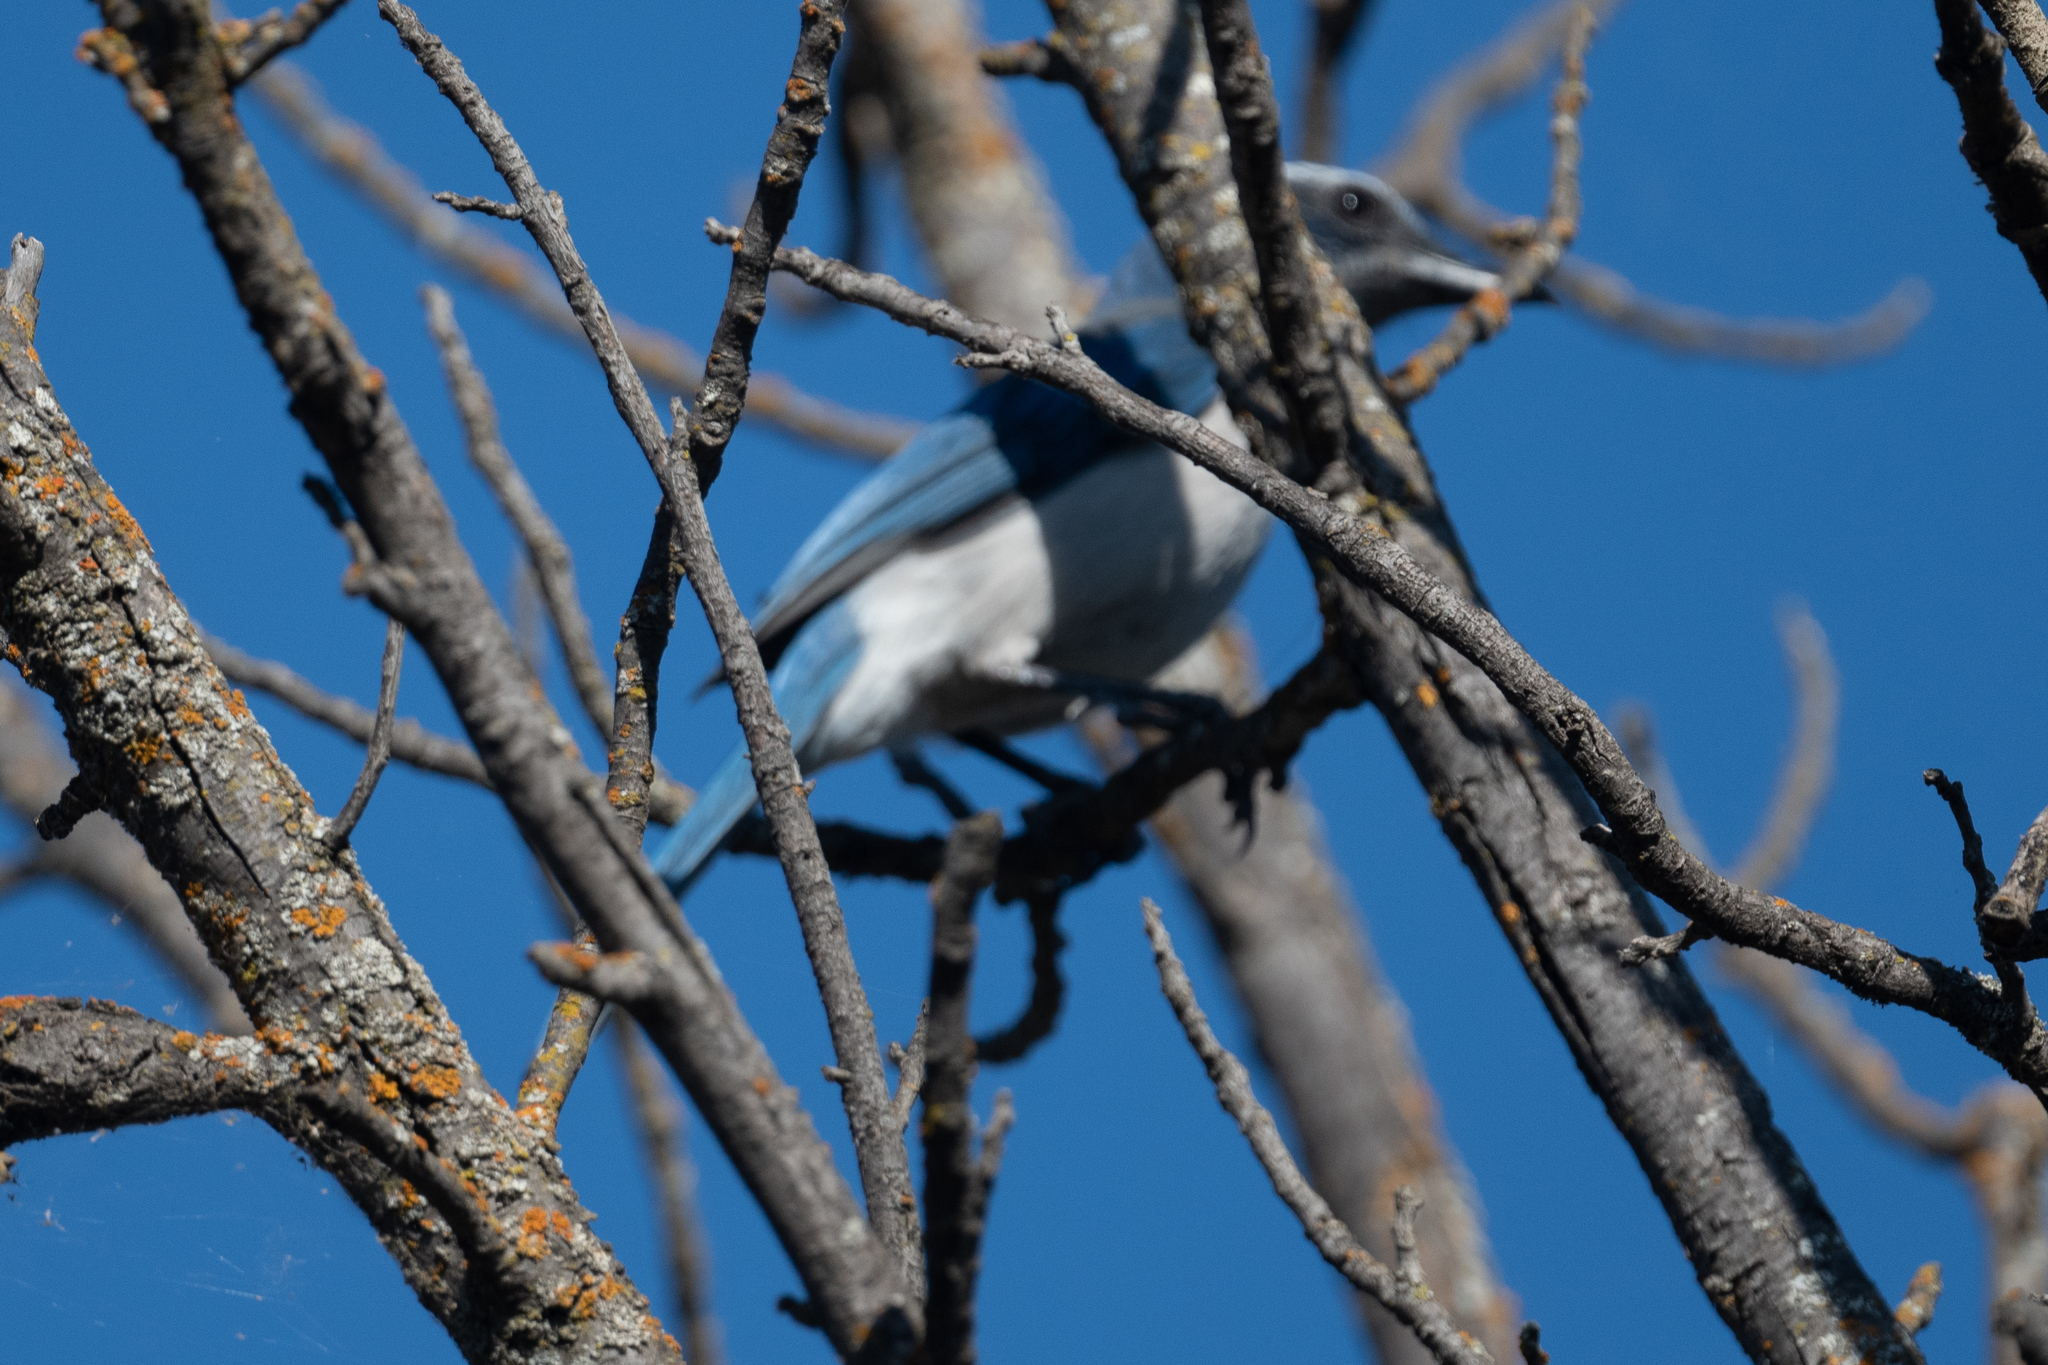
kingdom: Animalia
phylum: Chordata
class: Aves
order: Passeriformes
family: Corvidae
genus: Aphelocoma
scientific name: Aphelocoma californica
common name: California scrub-jay
